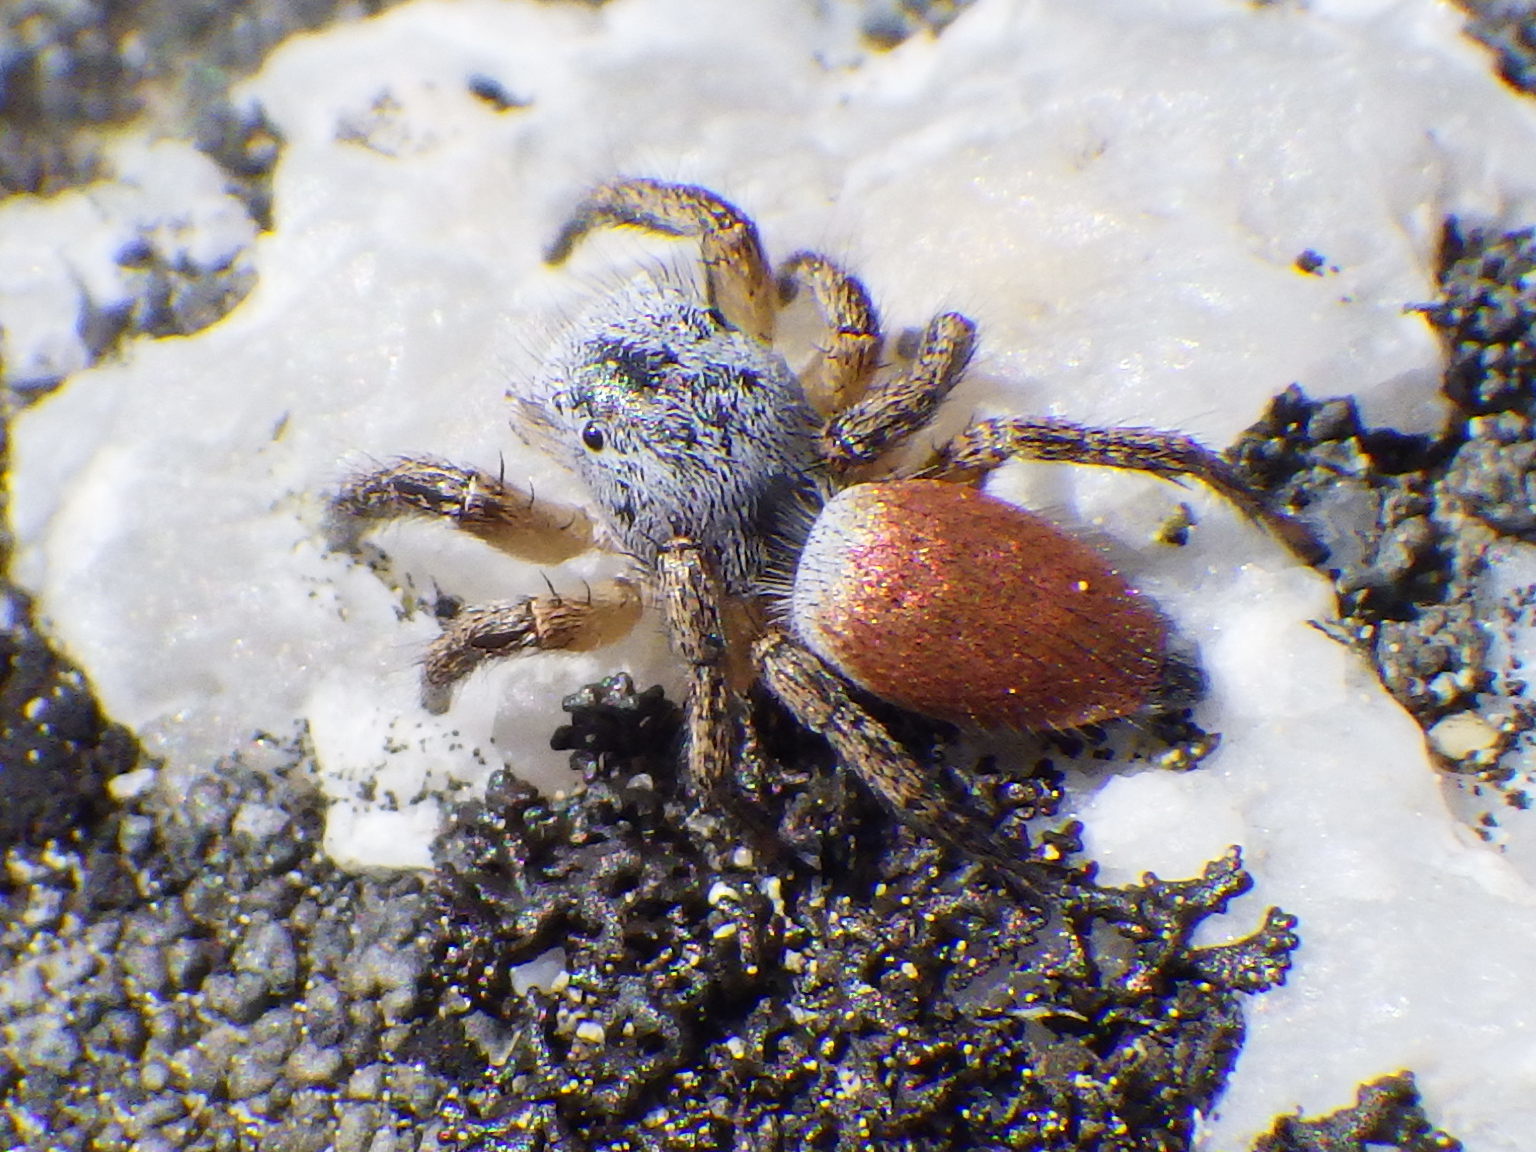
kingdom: Animalia
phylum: Arthropoda
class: Arachnida
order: Araneae
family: Salticidae
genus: Habronattus
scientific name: Habronattus decorus
